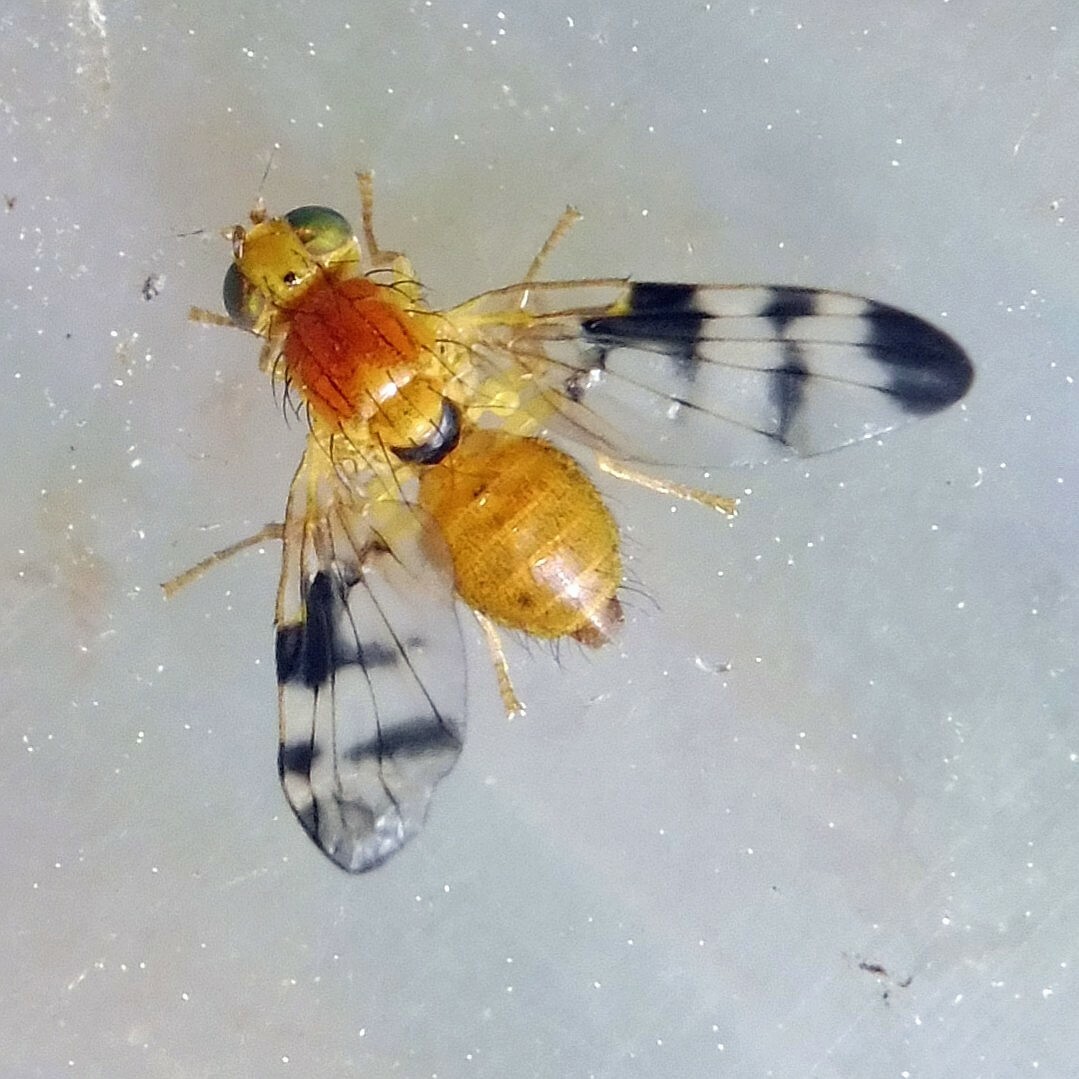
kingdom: Animalia
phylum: Arthropoda
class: Insecta
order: Diptera
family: Tephritidae
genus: Trypeta
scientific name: Trypeta zoe
